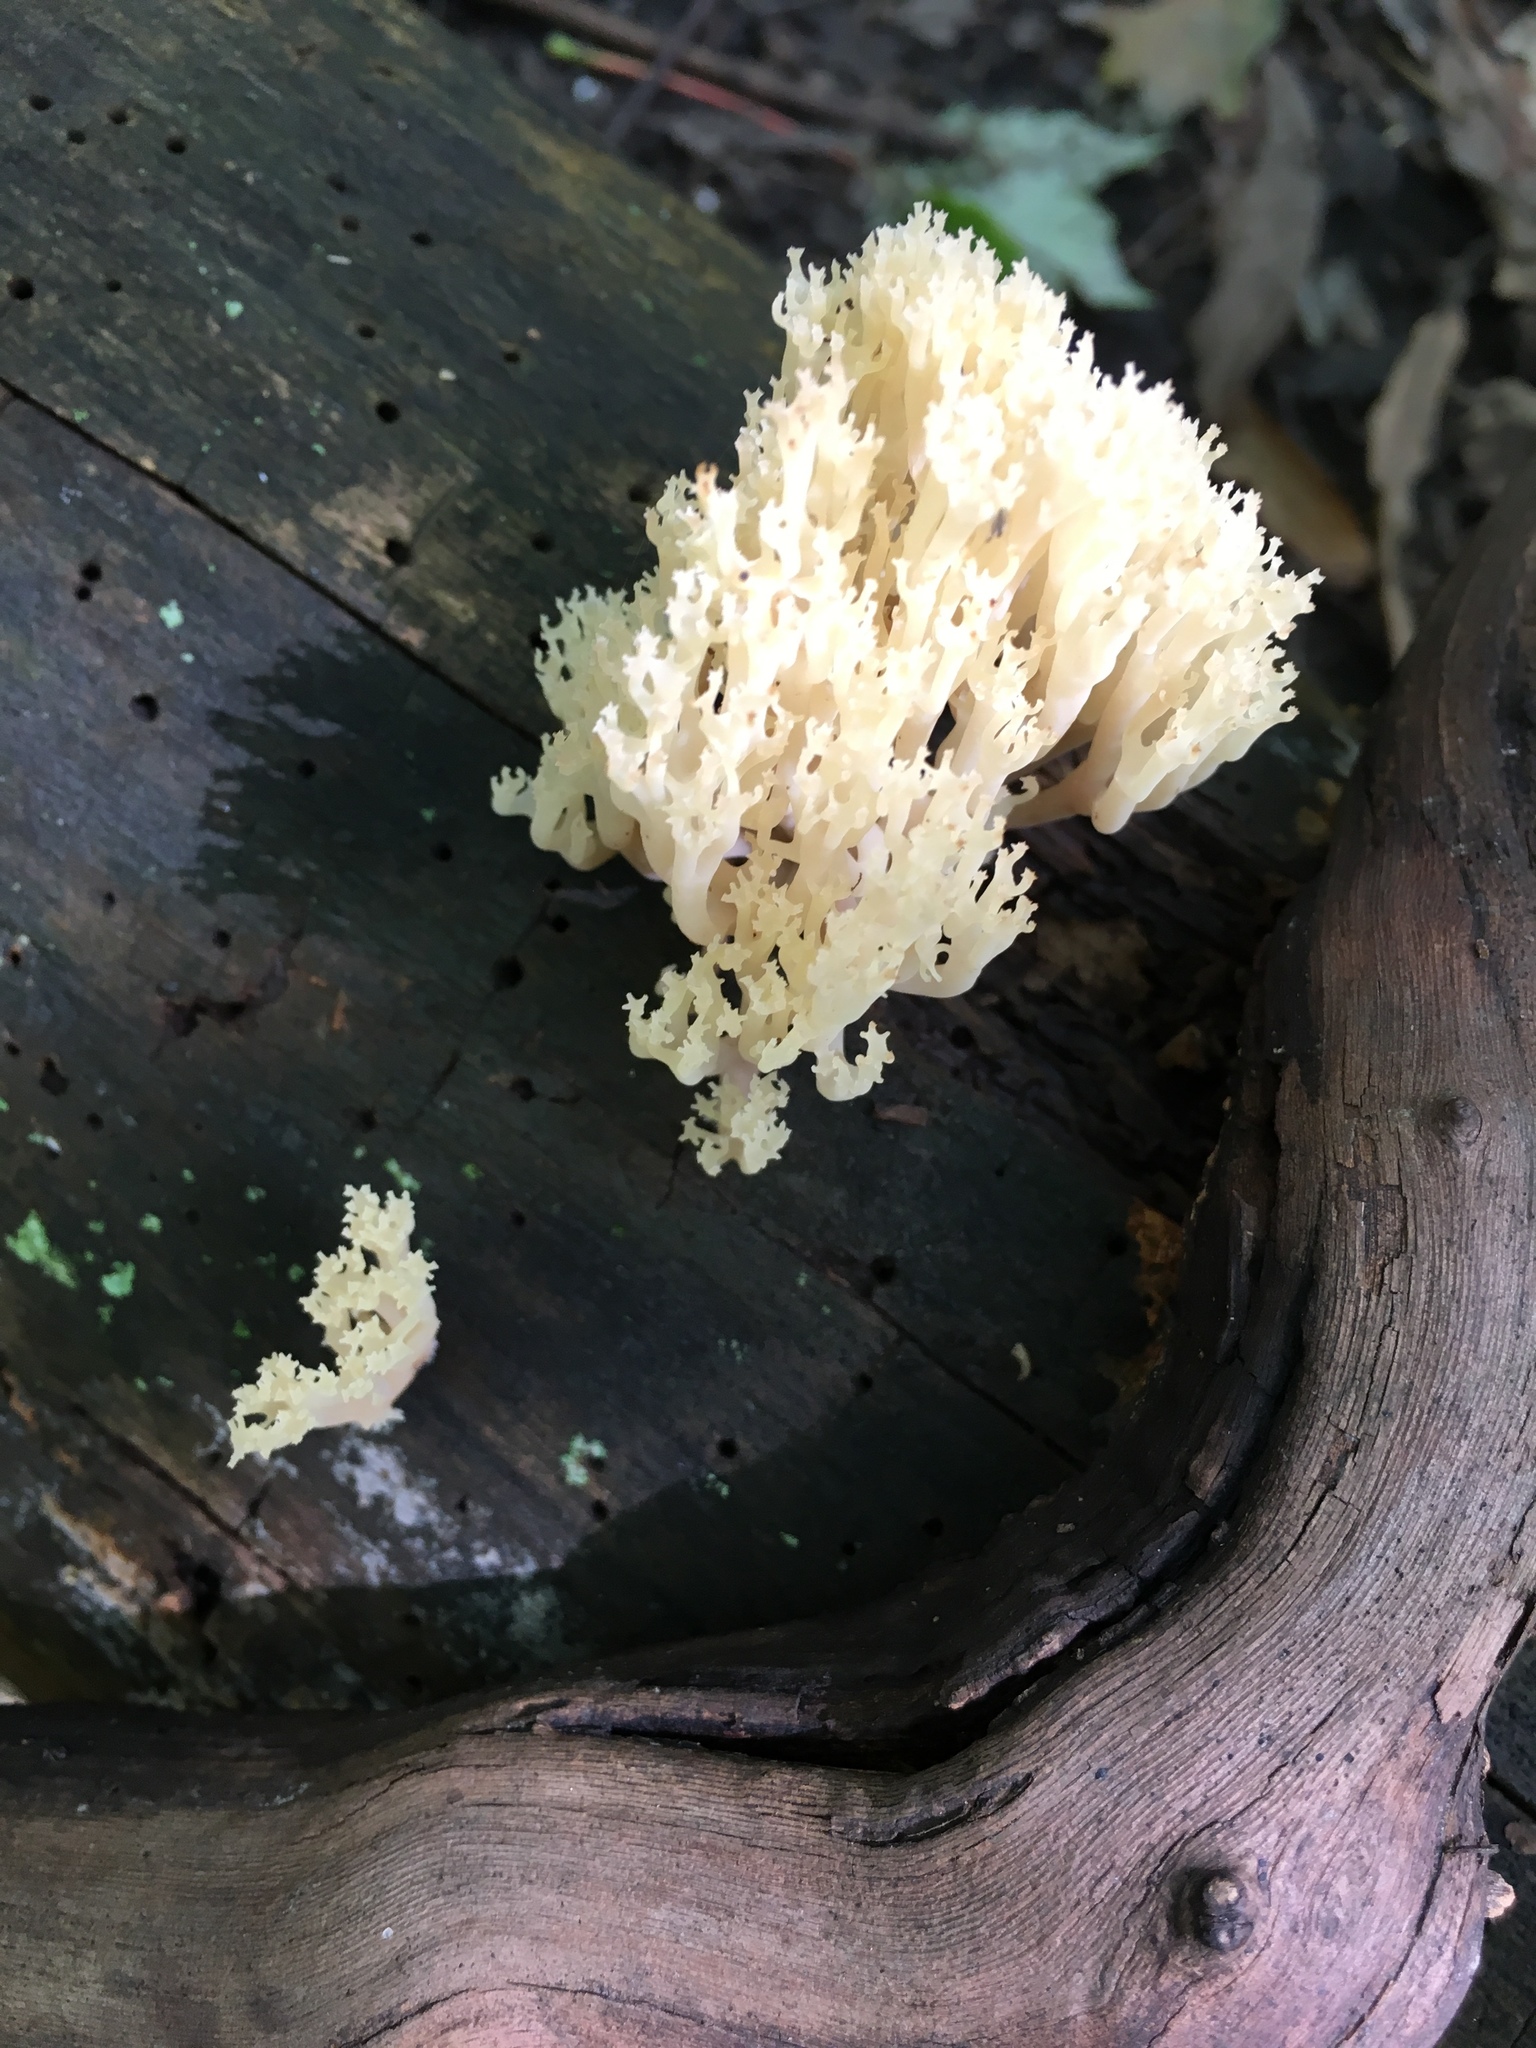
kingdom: Fungi
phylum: Basidiomycota
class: Agaricomycetes
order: Russulales
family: Auriscalpiaceae
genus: Artomyces
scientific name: Artomyces pyxidatus
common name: Crown-tipped coral fungus
